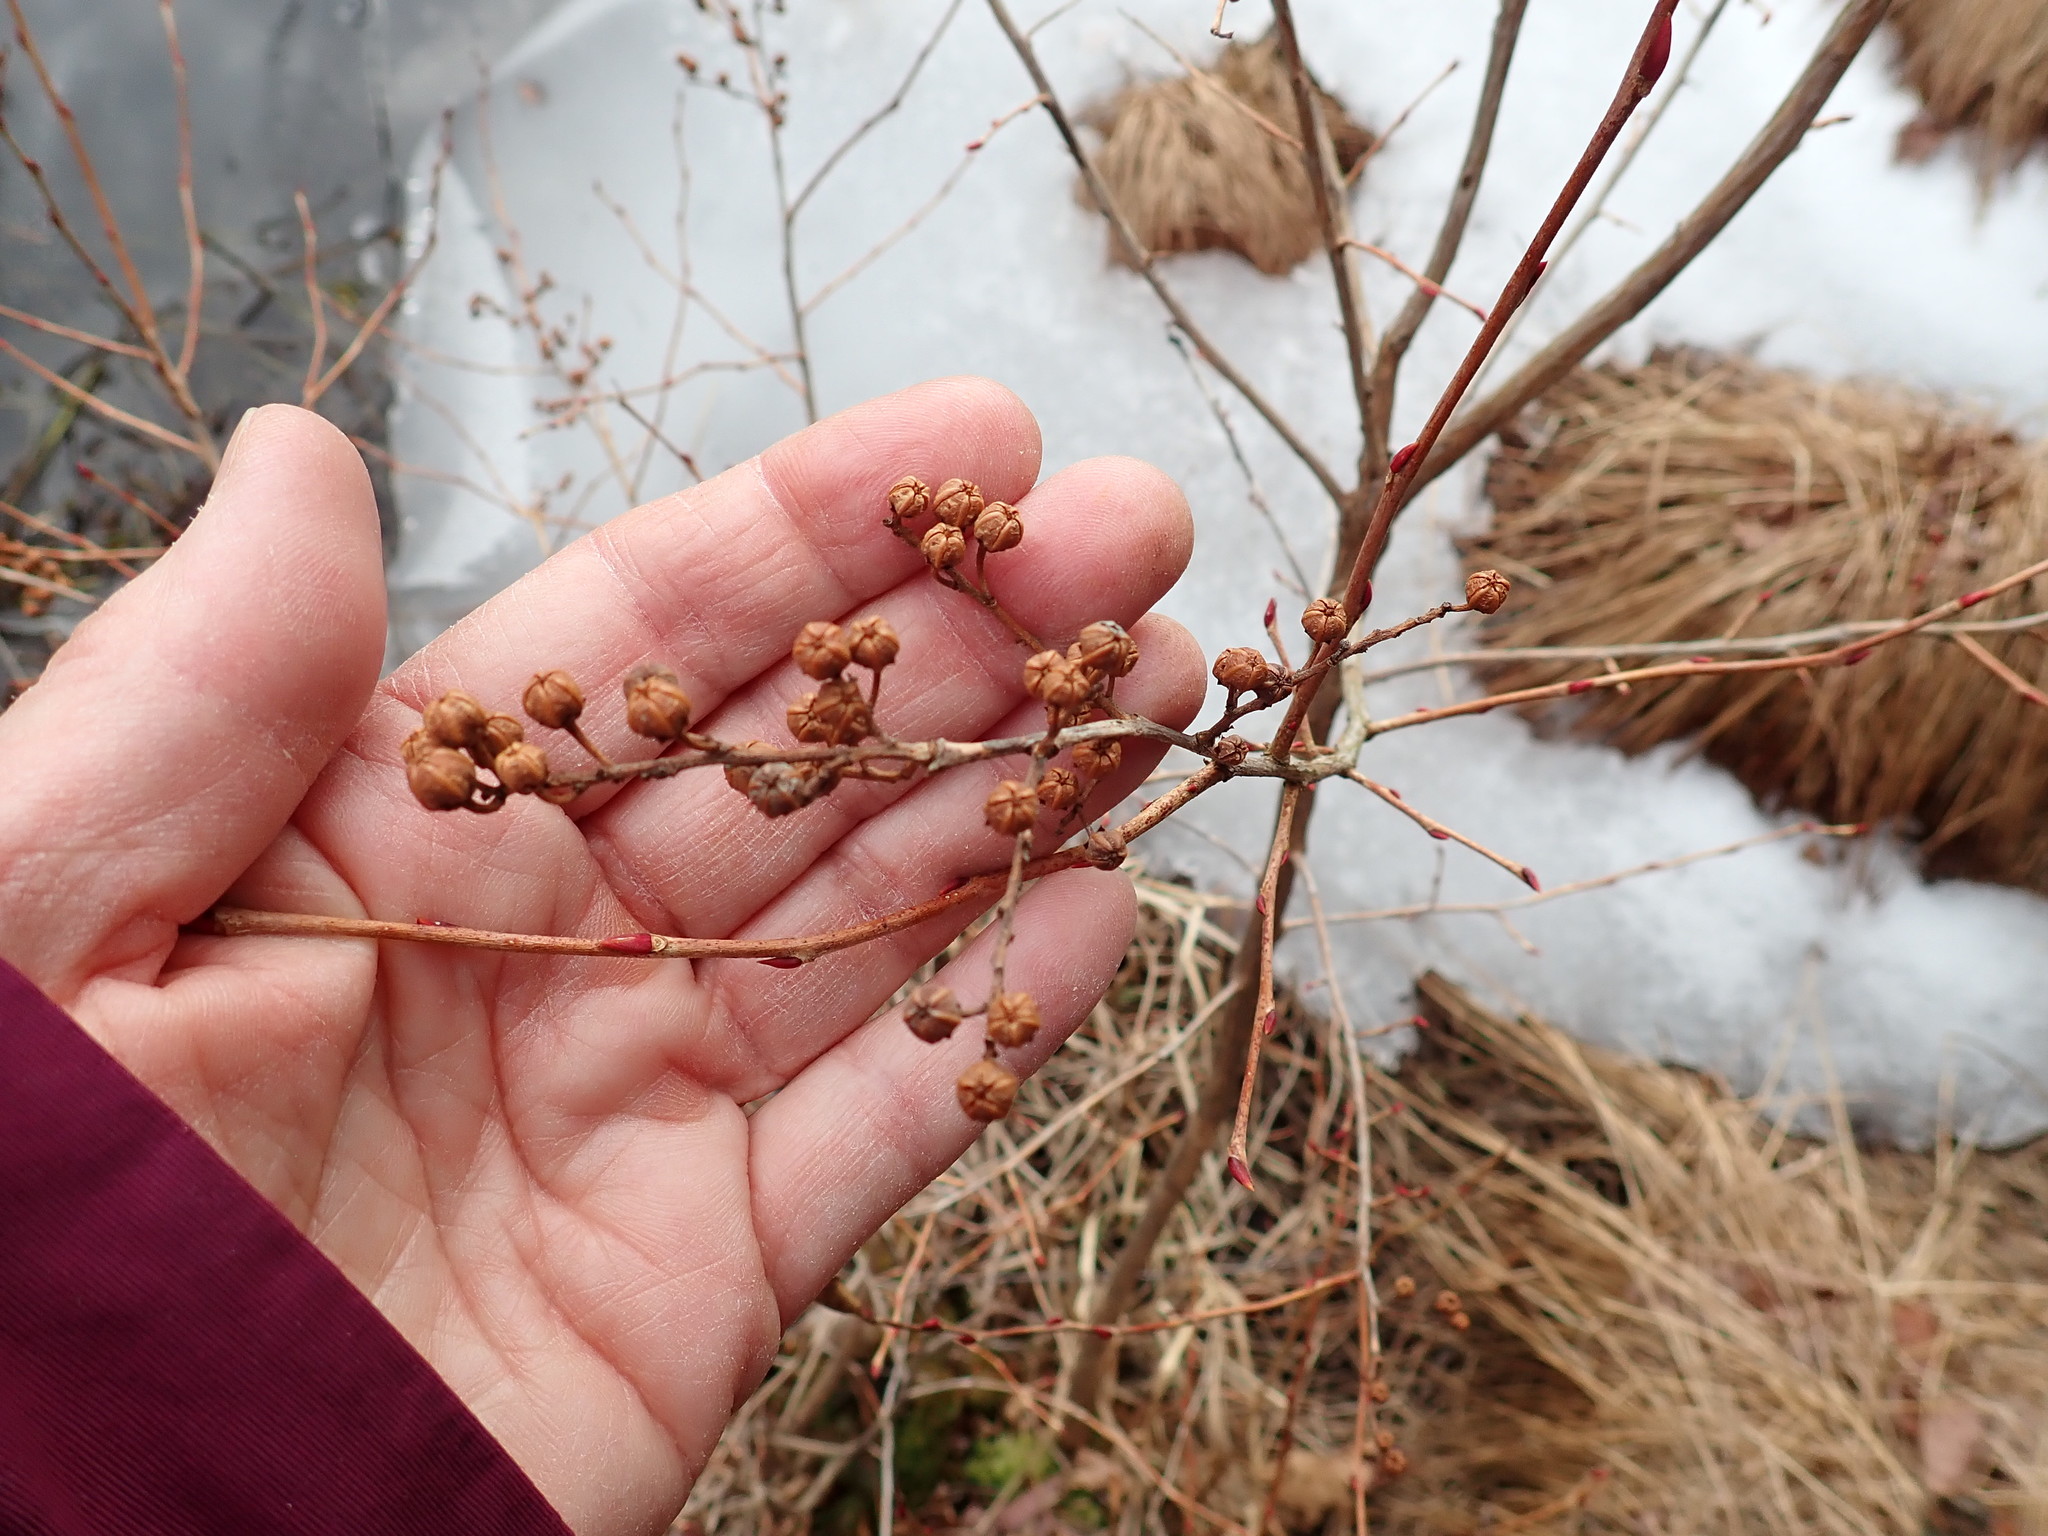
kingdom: Plantae
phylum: Tracheophyta
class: Magnoliopsida
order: Ericales
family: Ericaceae
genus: Lyonia
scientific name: Lyonia ligustrina
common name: Maleberry
